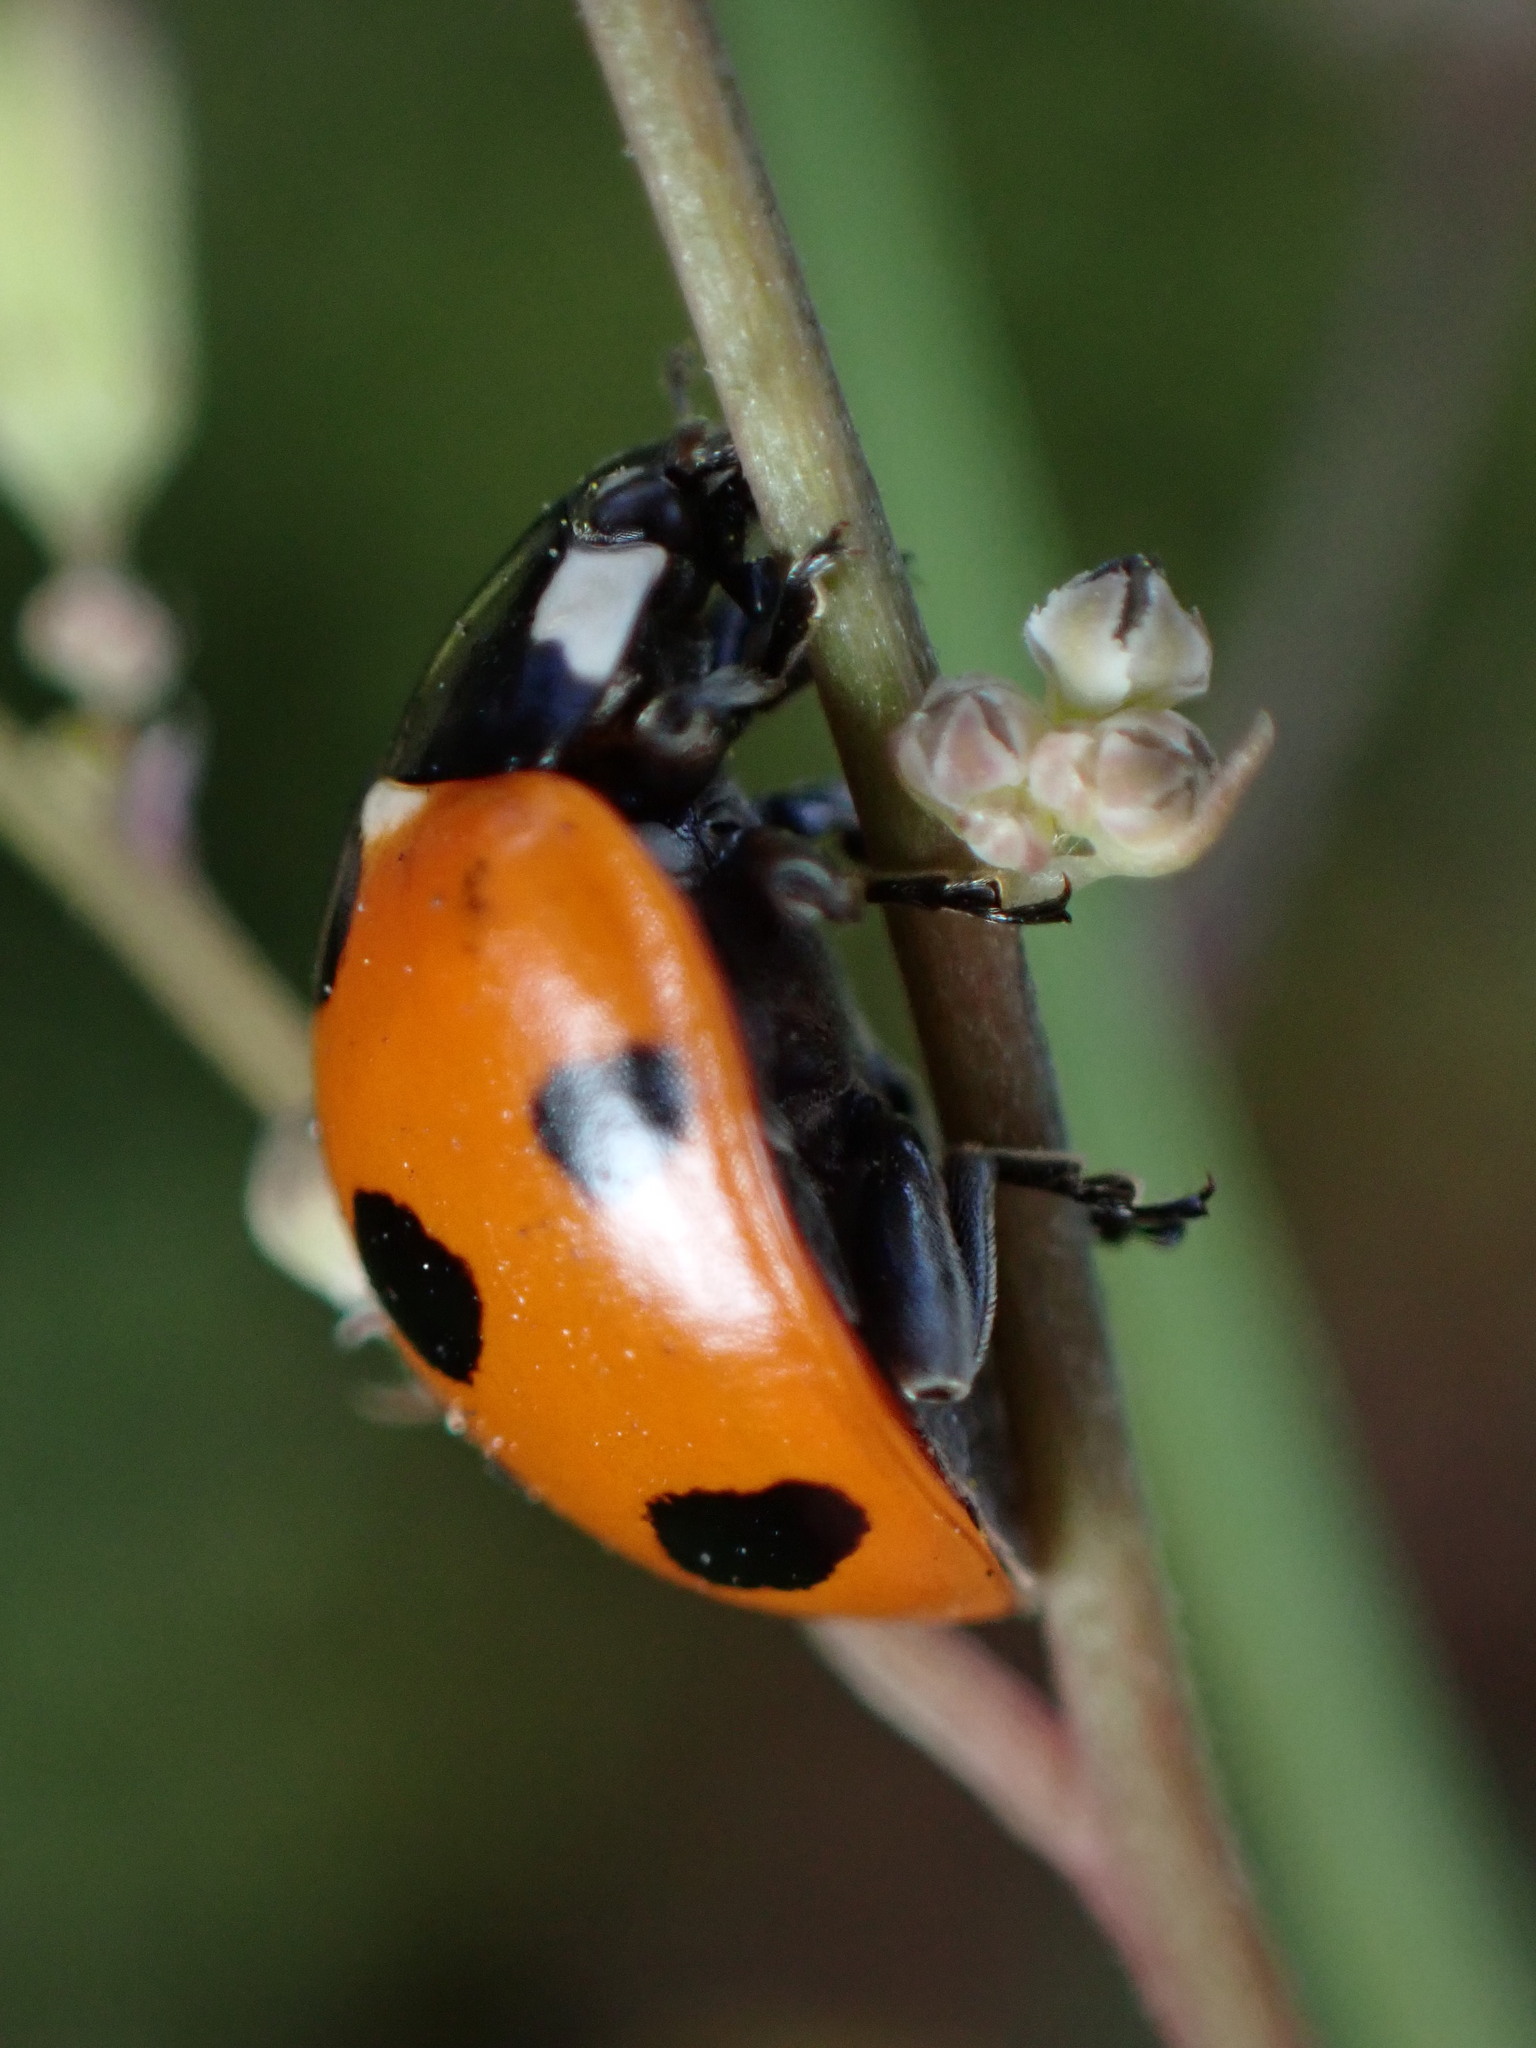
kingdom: Animalia
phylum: Arthropoda
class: Insecta
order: Coleoptera
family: Coccinellidae
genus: Coccinella
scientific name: Coccinella septempunctata
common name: Sevenspotted lady beetle
